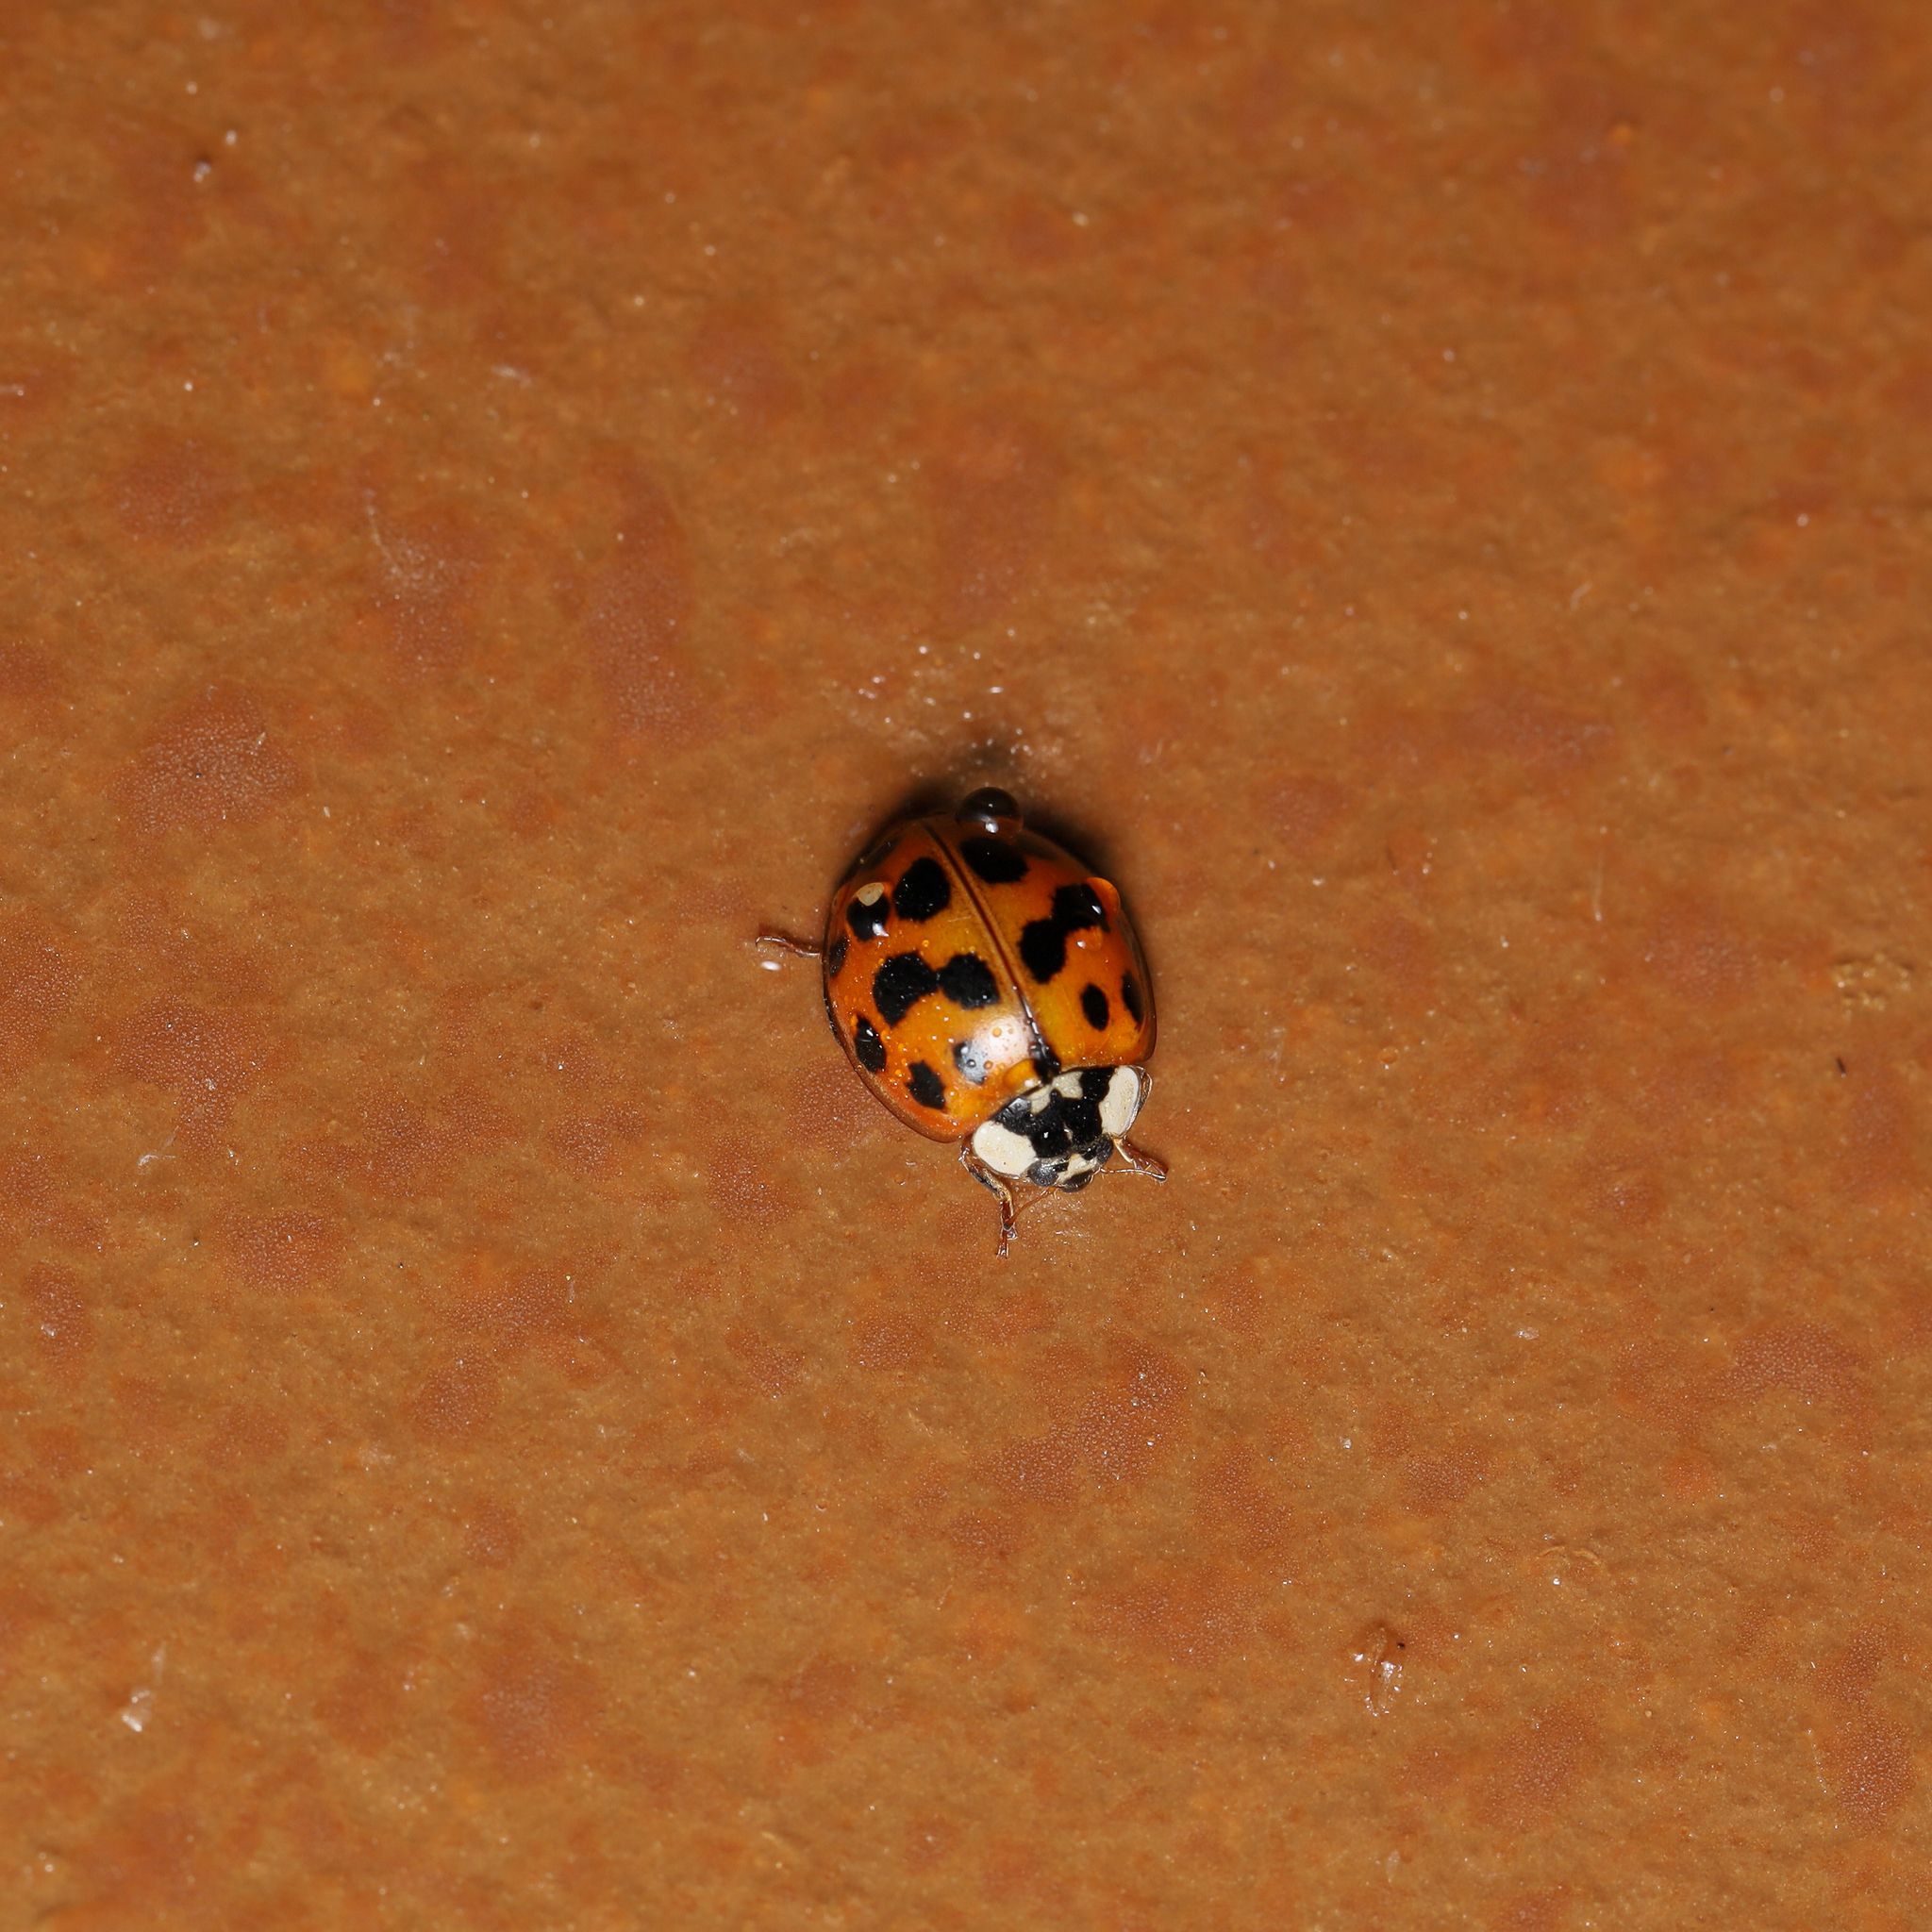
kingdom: Animalia
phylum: Arthropoda
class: Insecta
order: Coleoptera
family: Coccinellidae
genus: Harmonia
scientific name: Harmonia axyridis
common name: Harlequin ladybird
